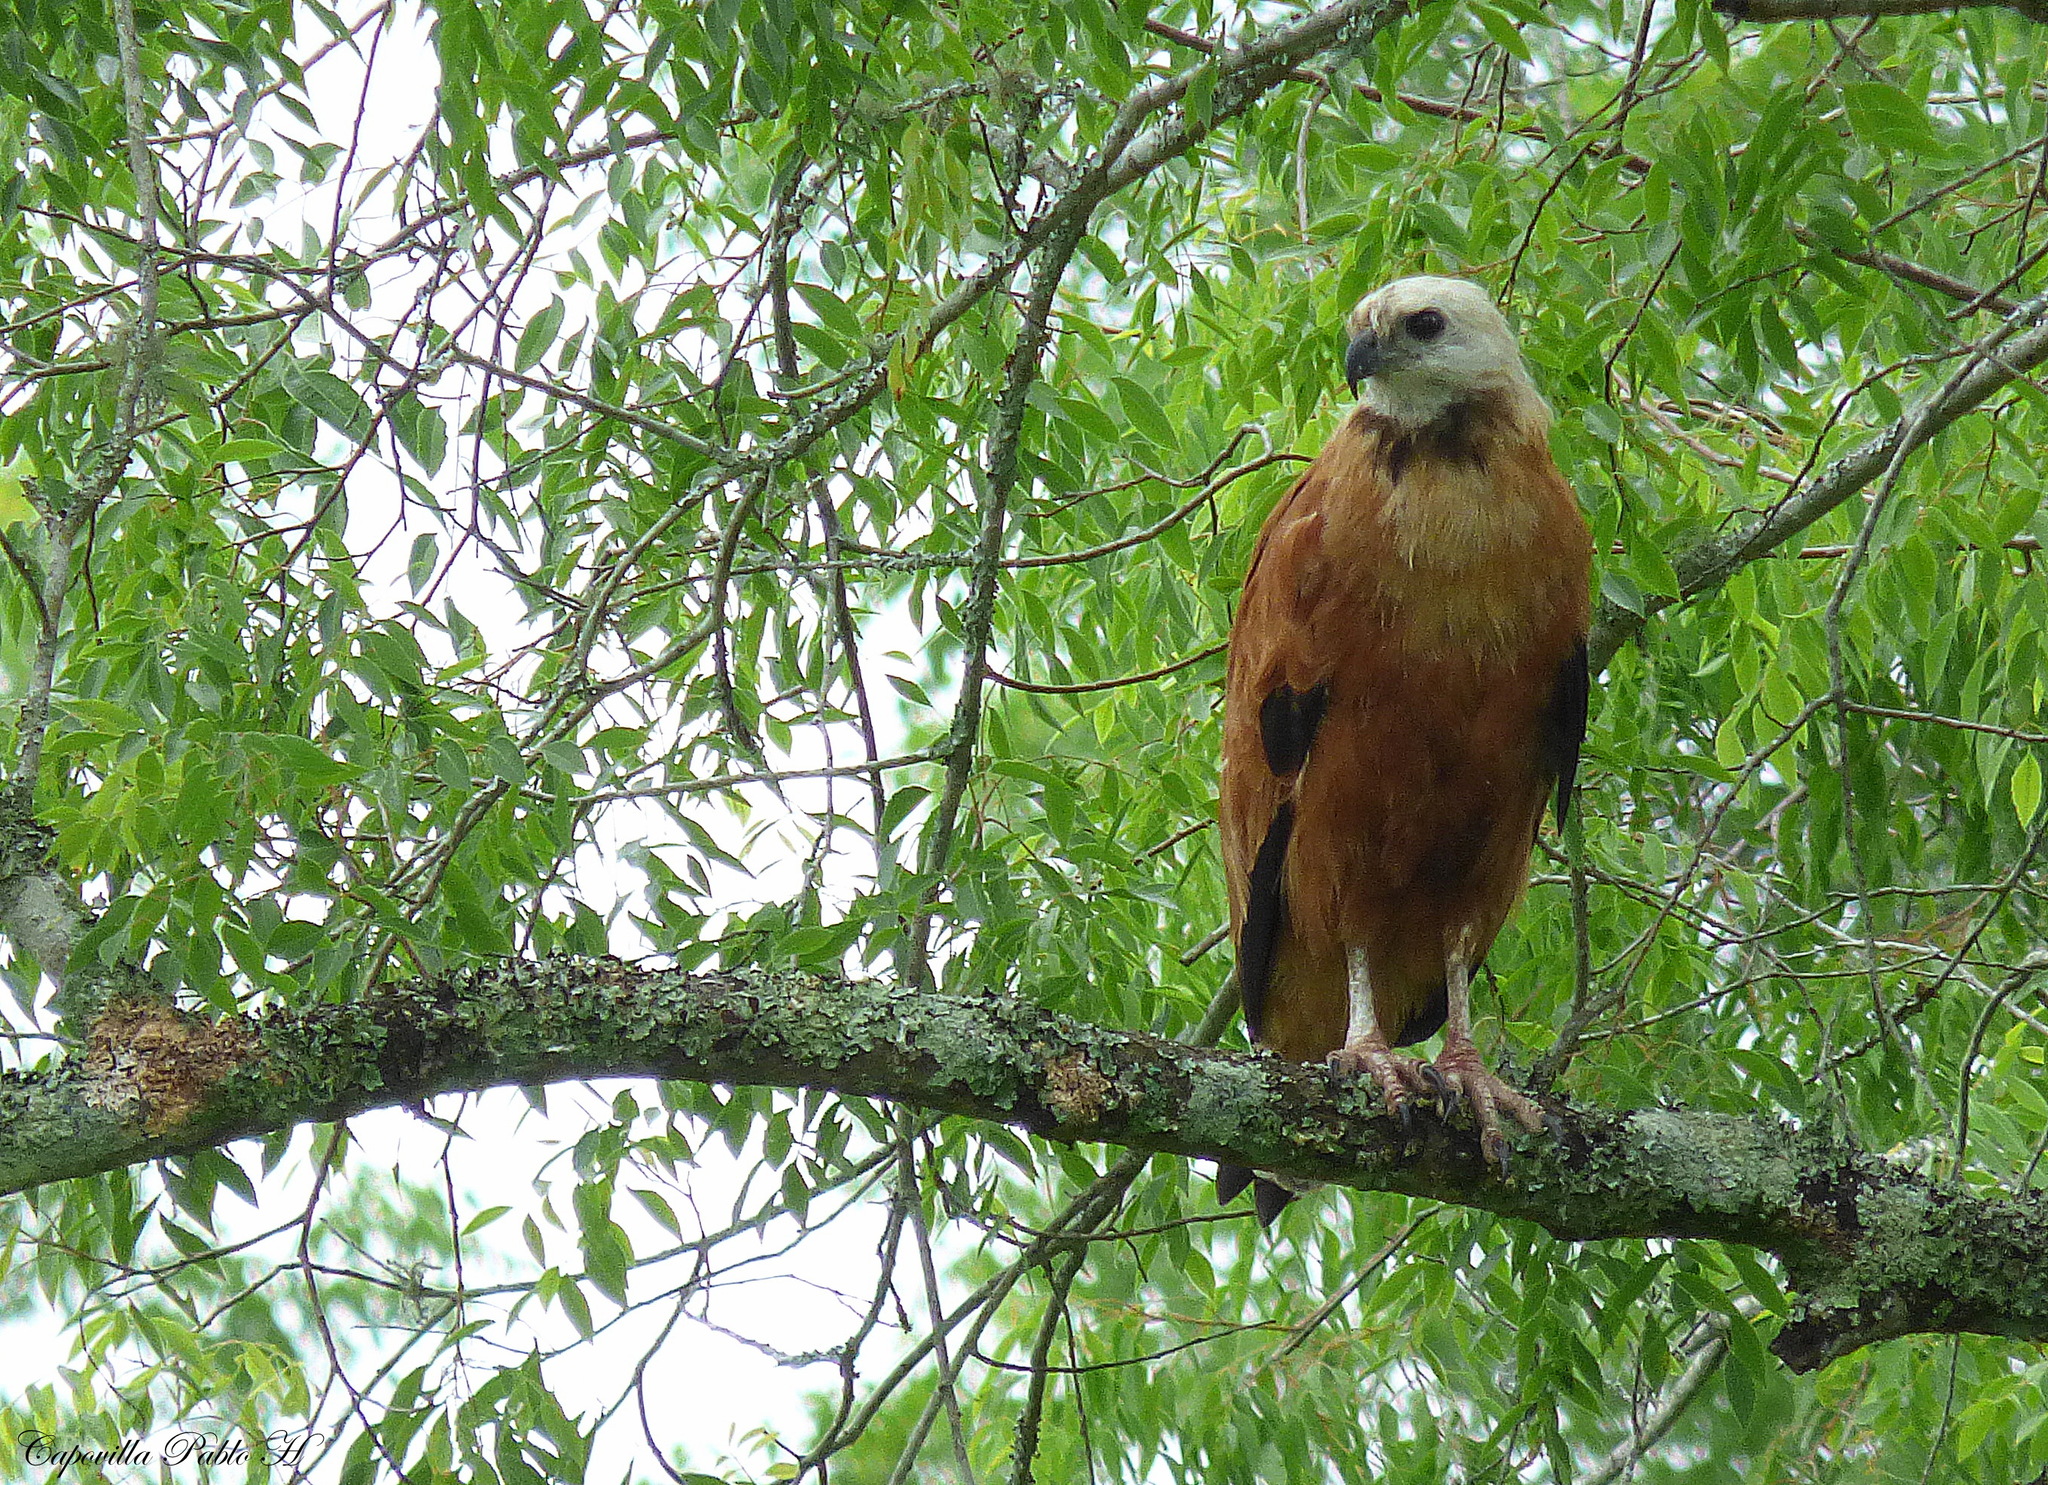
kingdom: Animalia
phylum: Chordata
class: Aves
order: Accipitriformes
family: Accipitridae
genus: Busarellus
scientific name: Busarellus nigricollis
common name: Black-collared hawk
